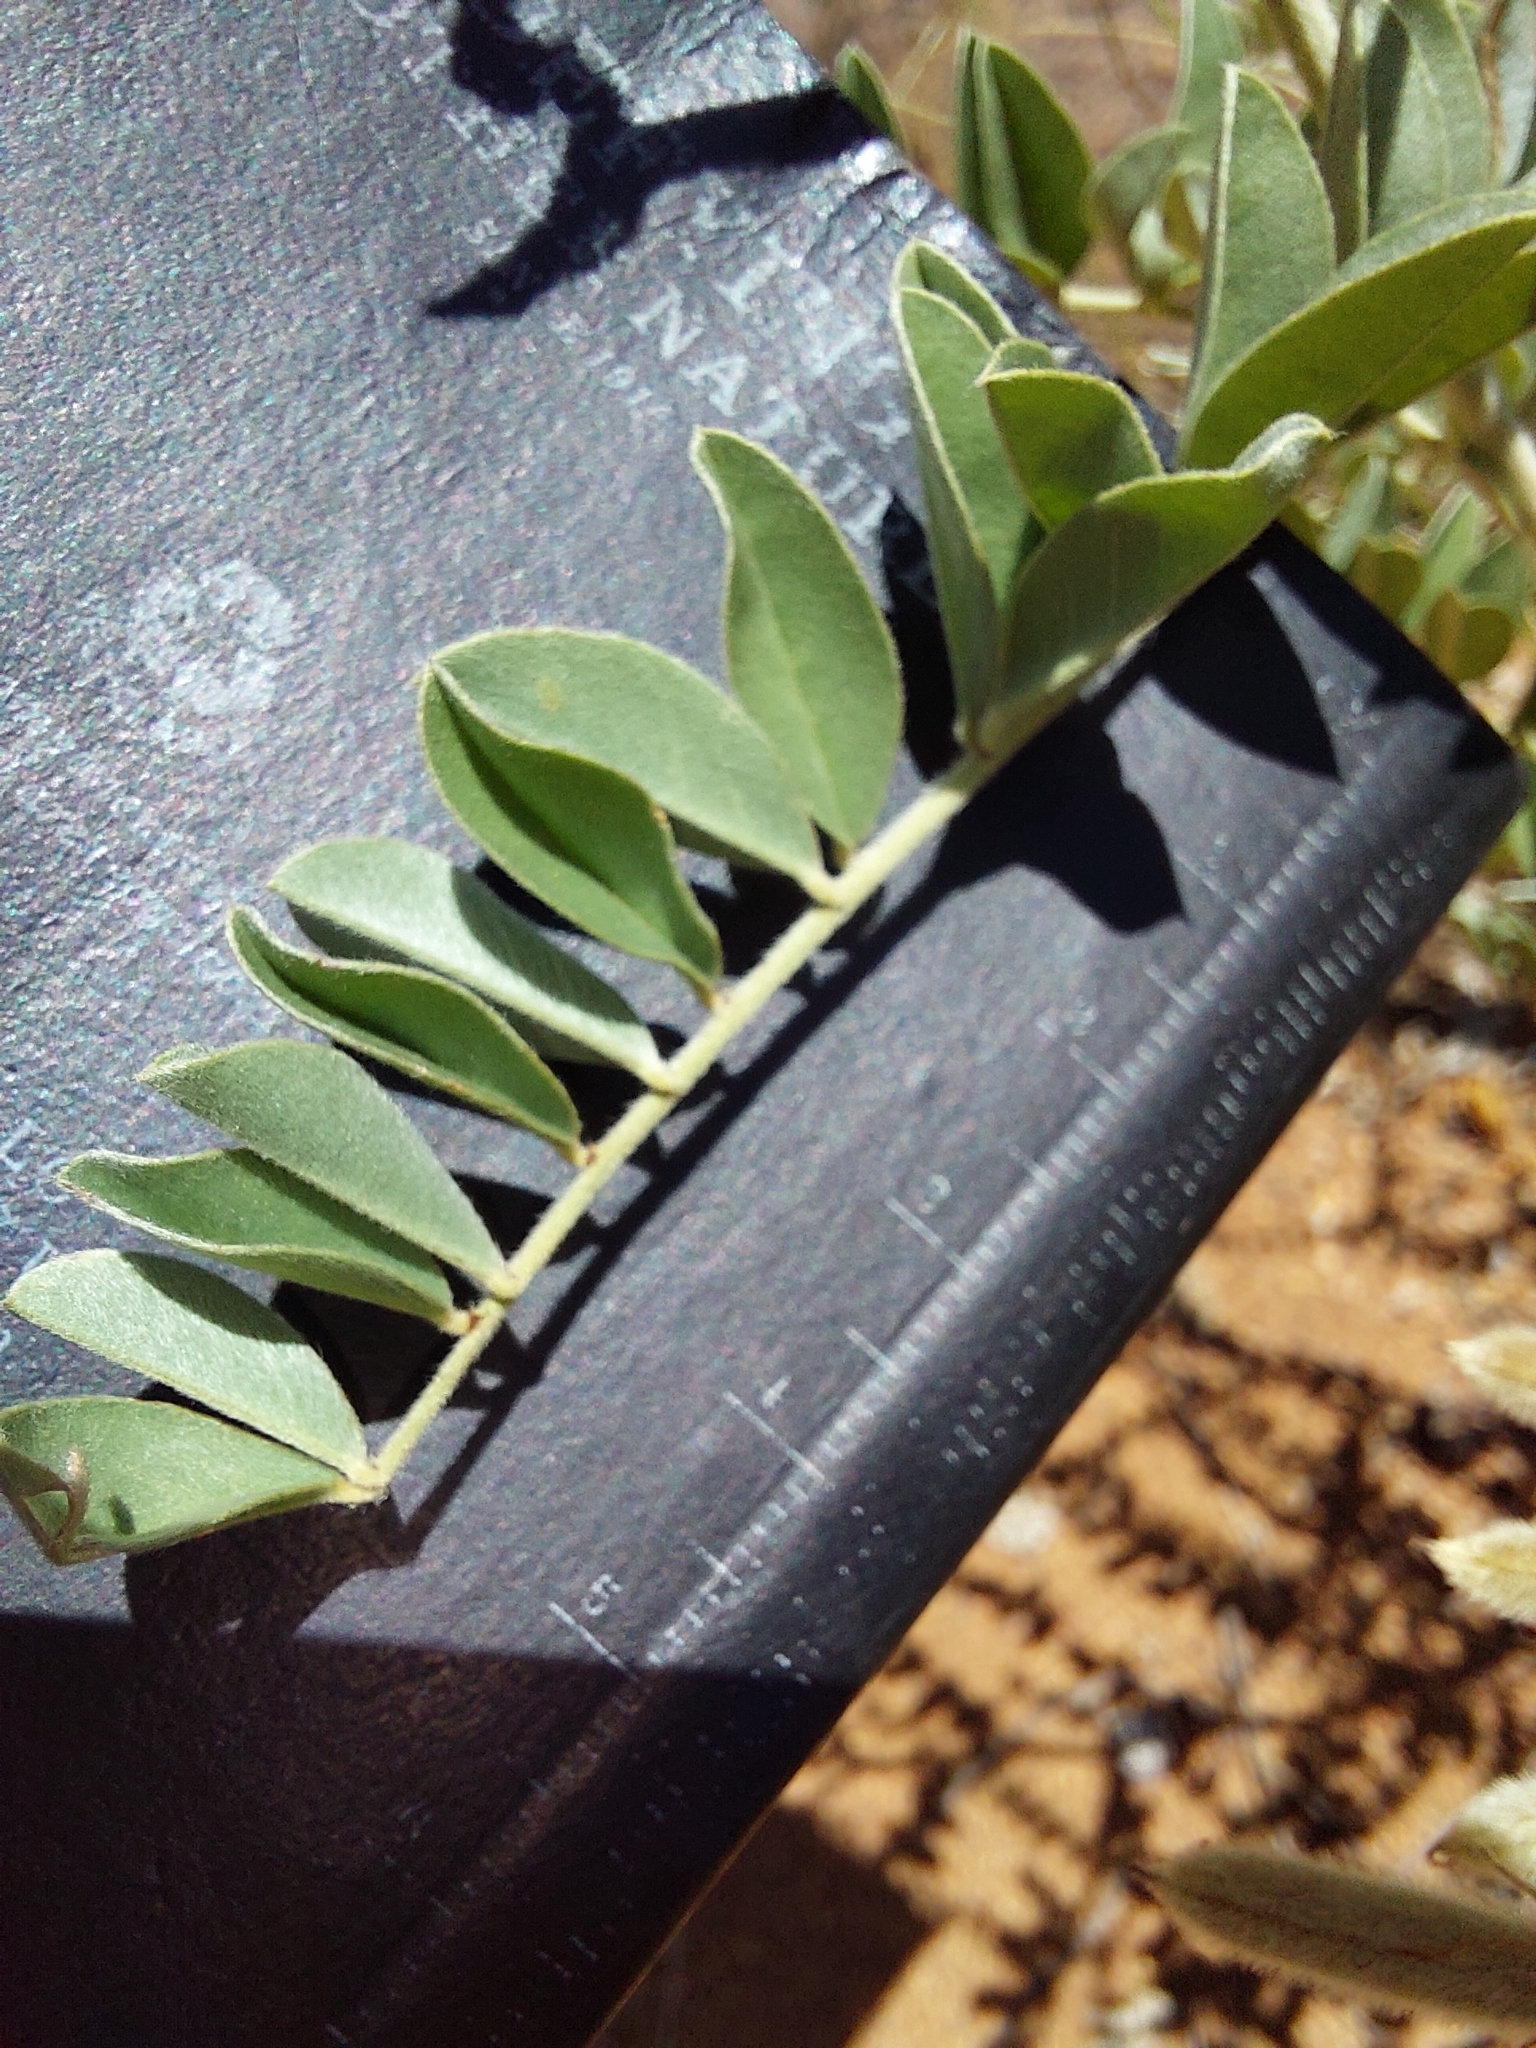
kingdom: Plantae
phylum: Tracheophyta
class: Magnoliopsida
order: Fabales
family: Fabaceae
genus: Indigofera
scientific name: Indigofera mollicoma
